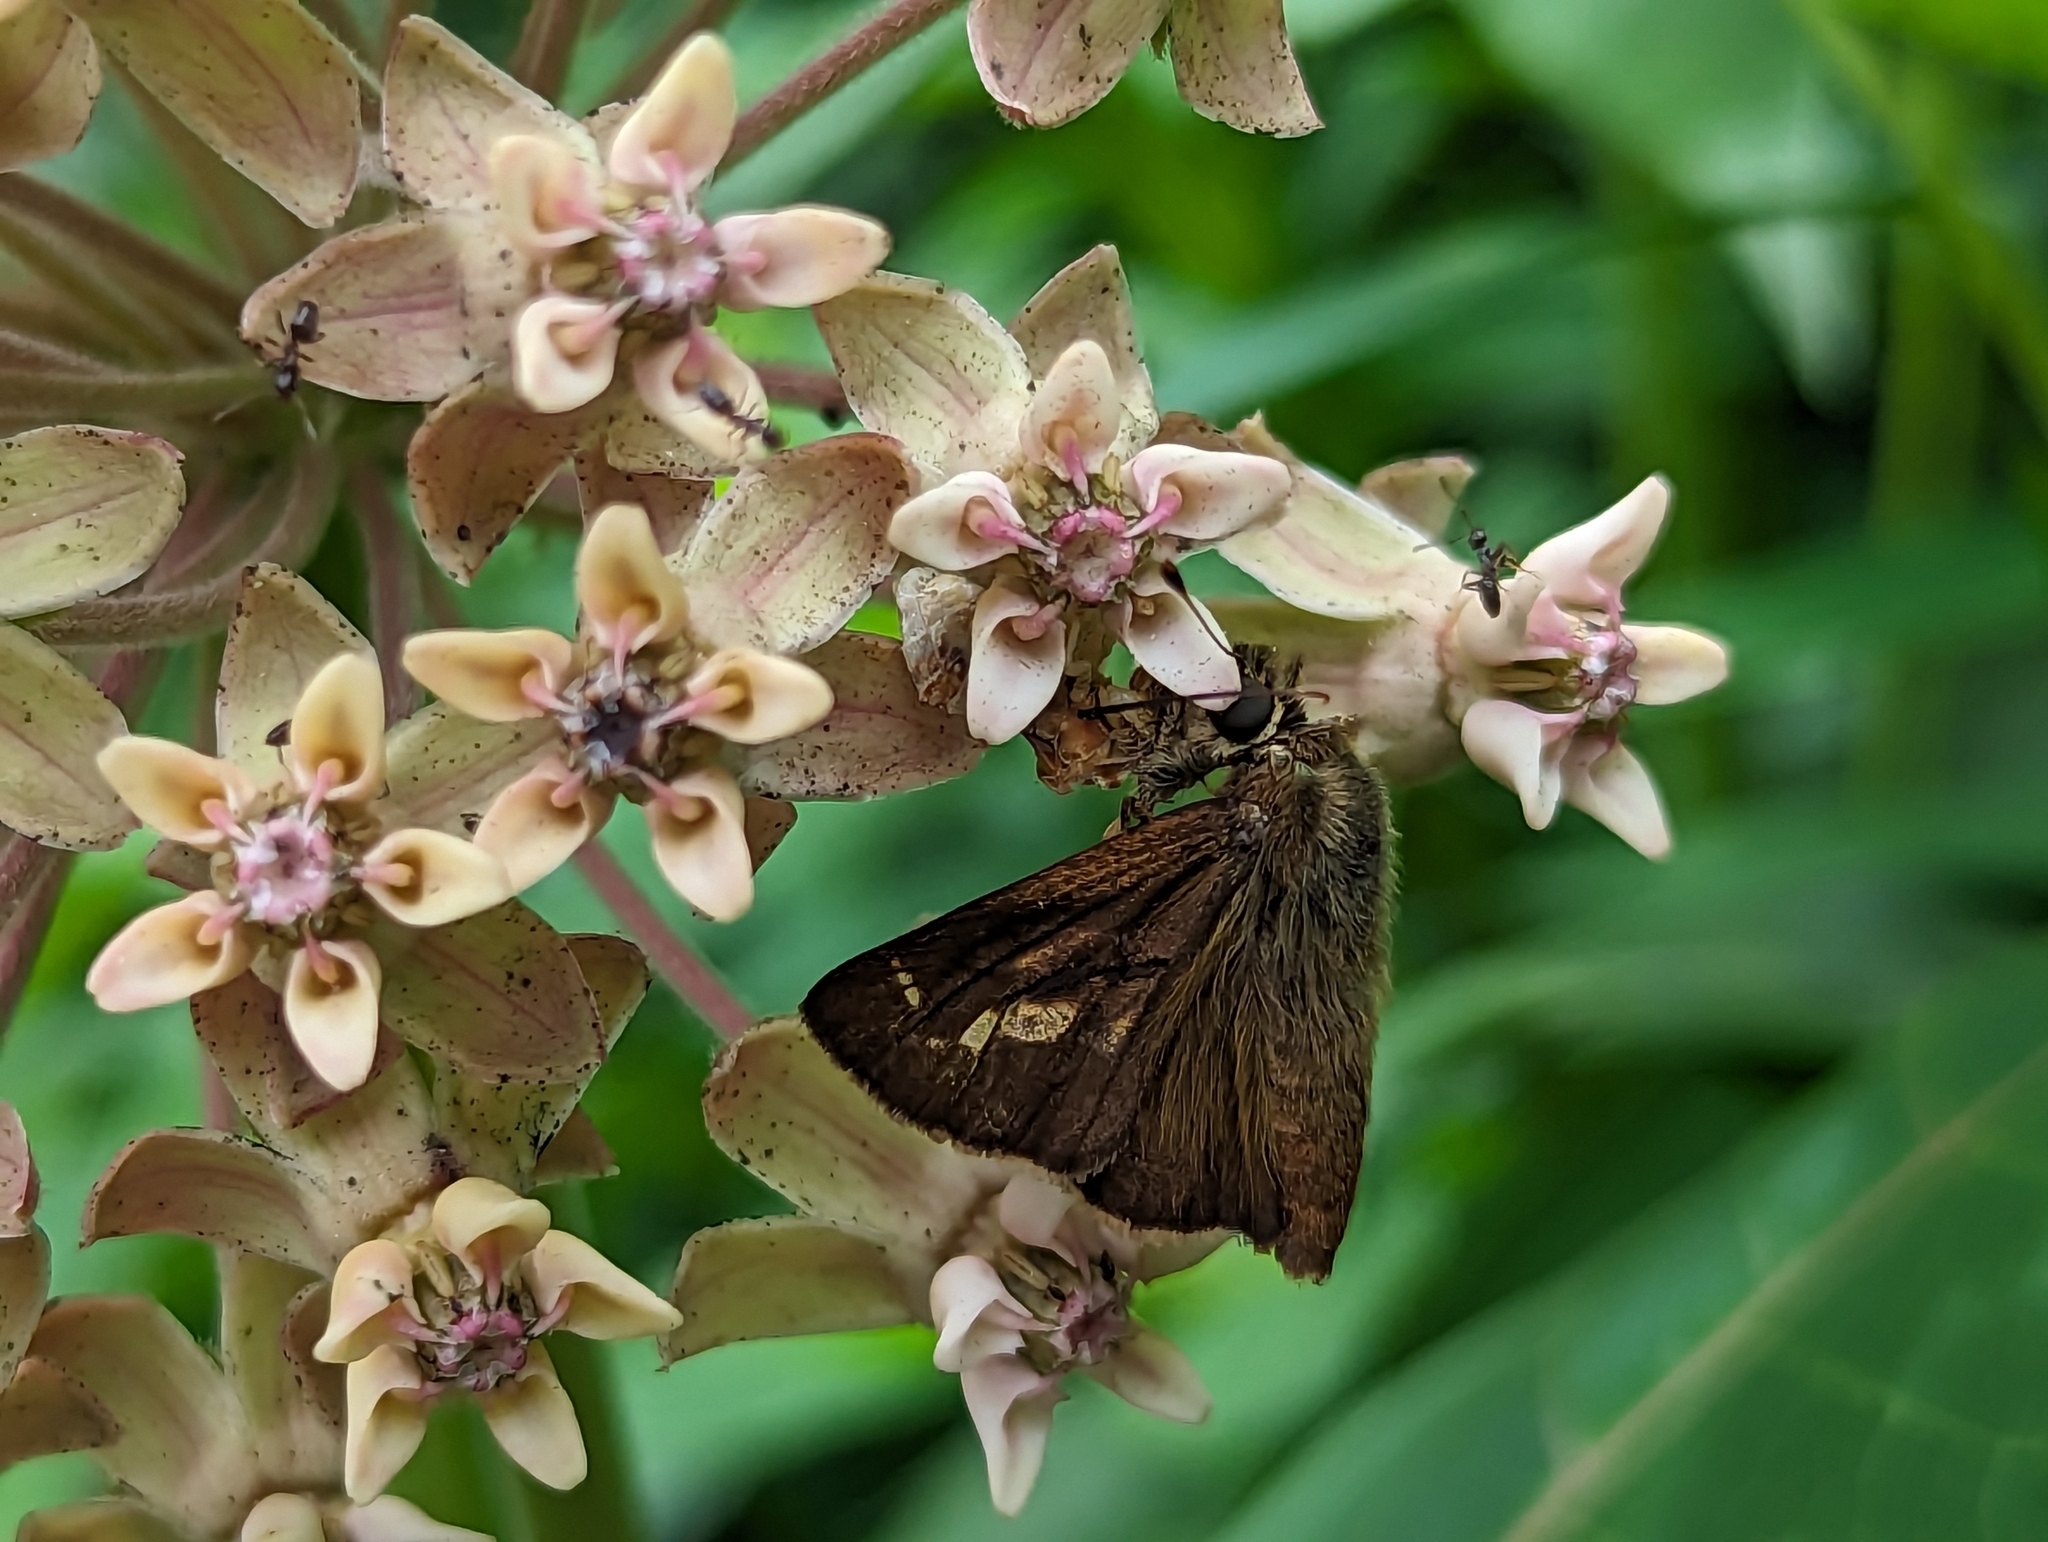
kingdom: Animalia
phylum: Arthropoda
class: Insecta
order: Lepidoptera
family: Hesperiidae
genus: Vernia
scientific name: Vernia verna
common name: Little glassywing
